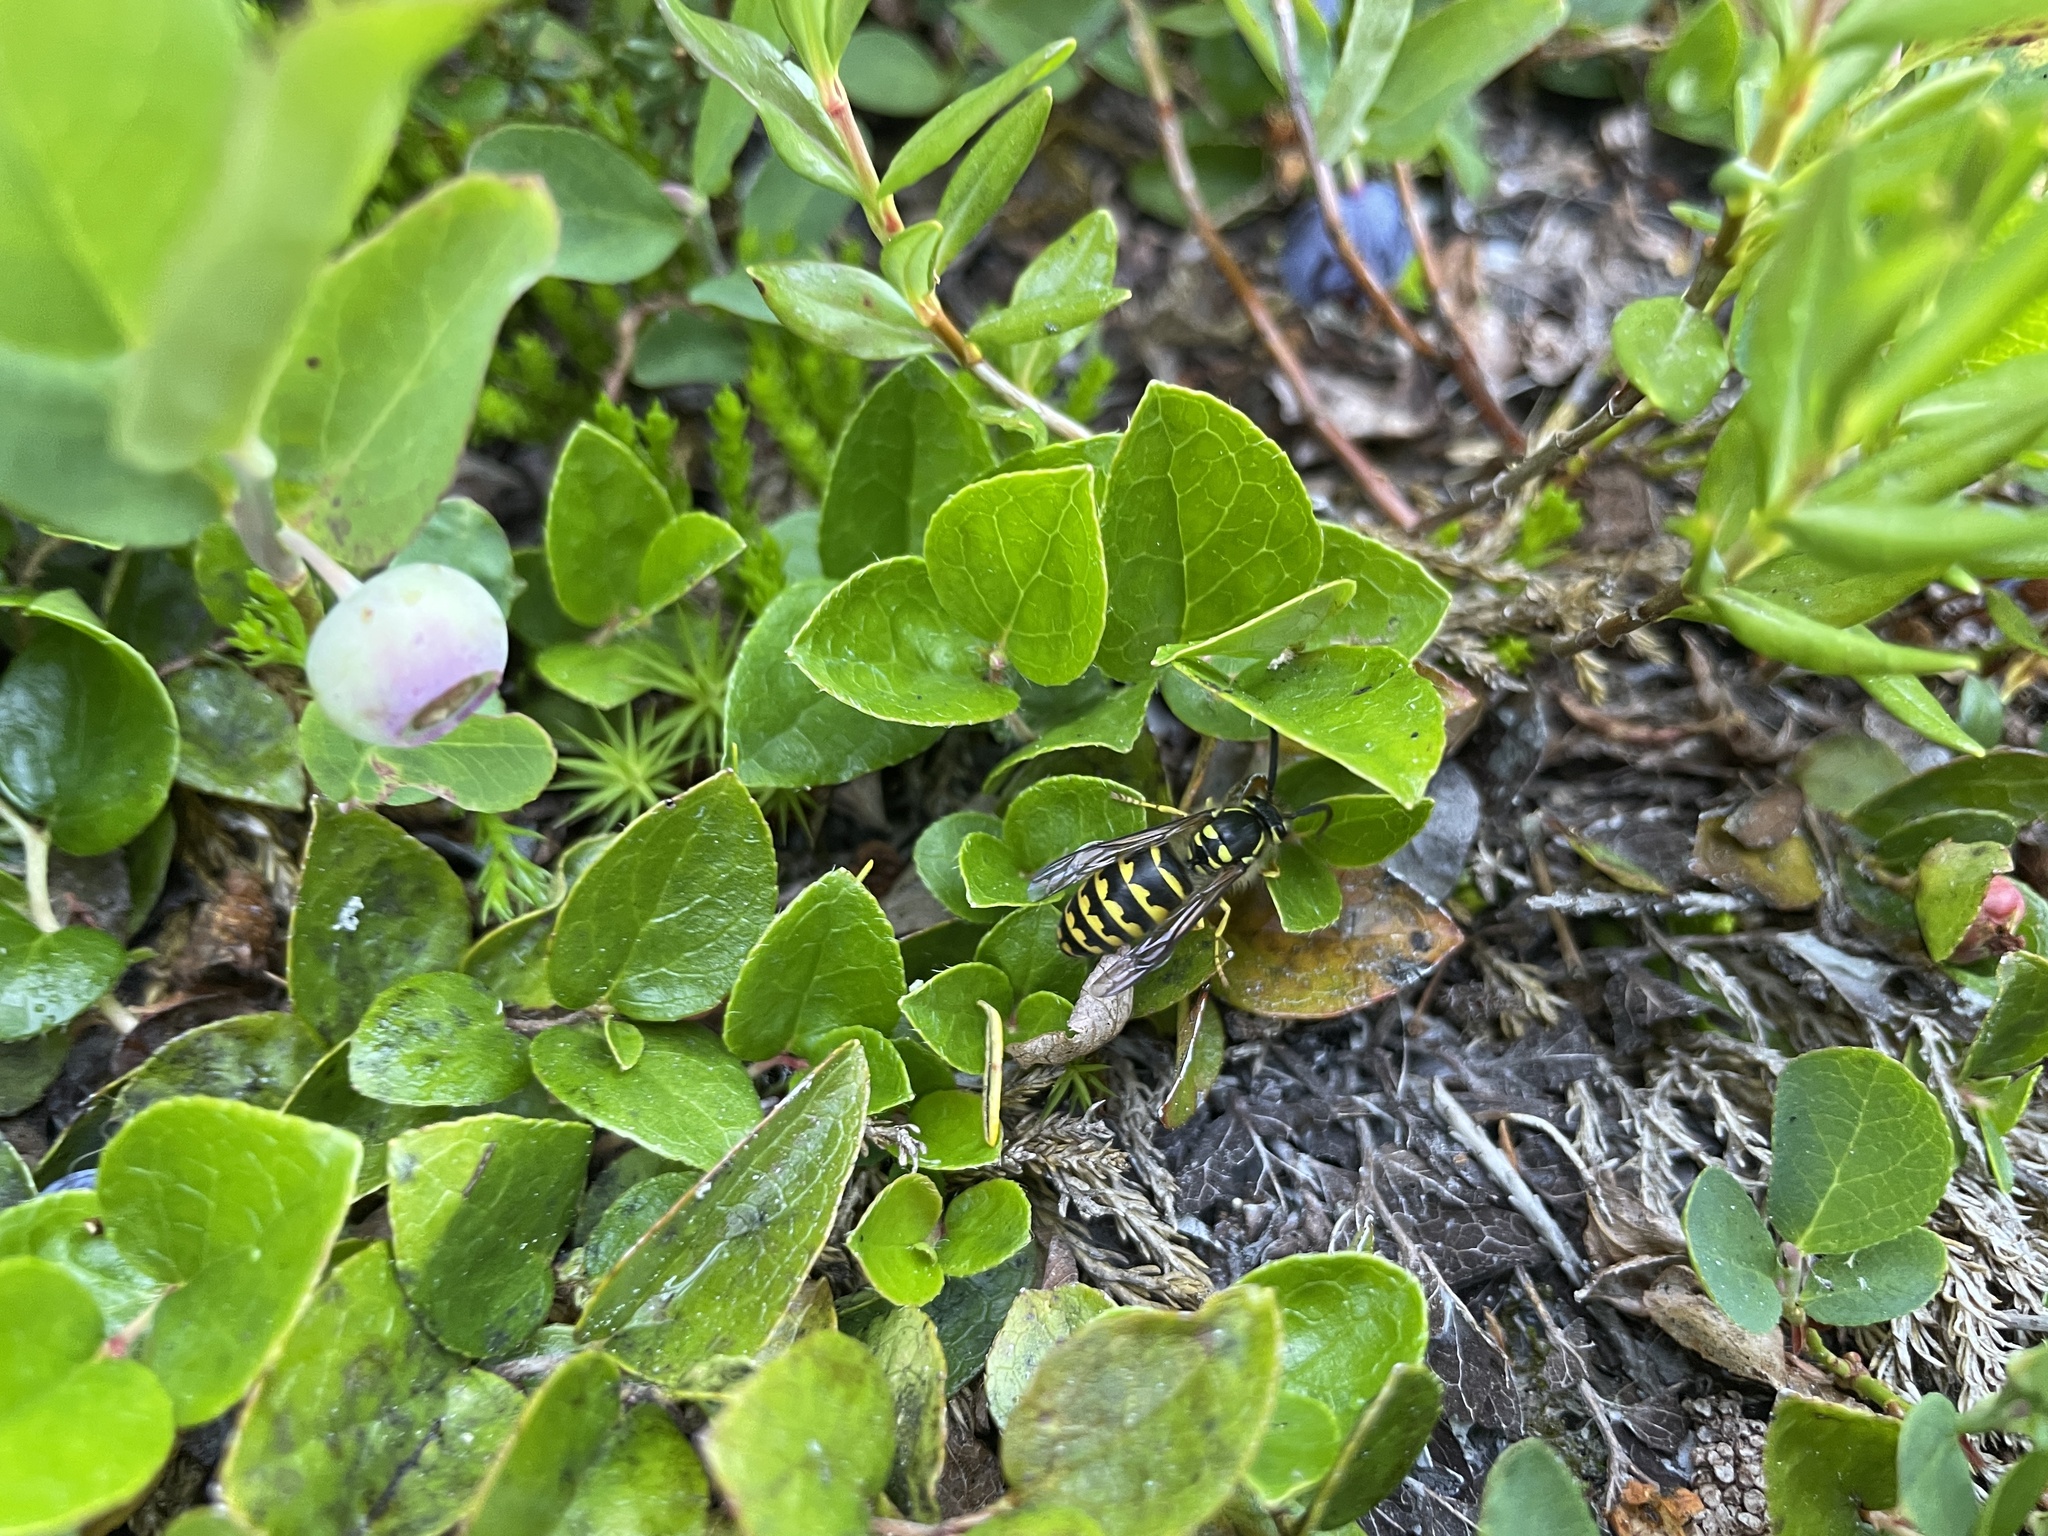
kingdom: Animalia
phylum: Arthropoda
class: Insecta
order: Hymenoptera
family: Vespidae
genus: Dolichovespula
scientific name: Dolichovespula arenaria
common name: Aerial yellowjacket
